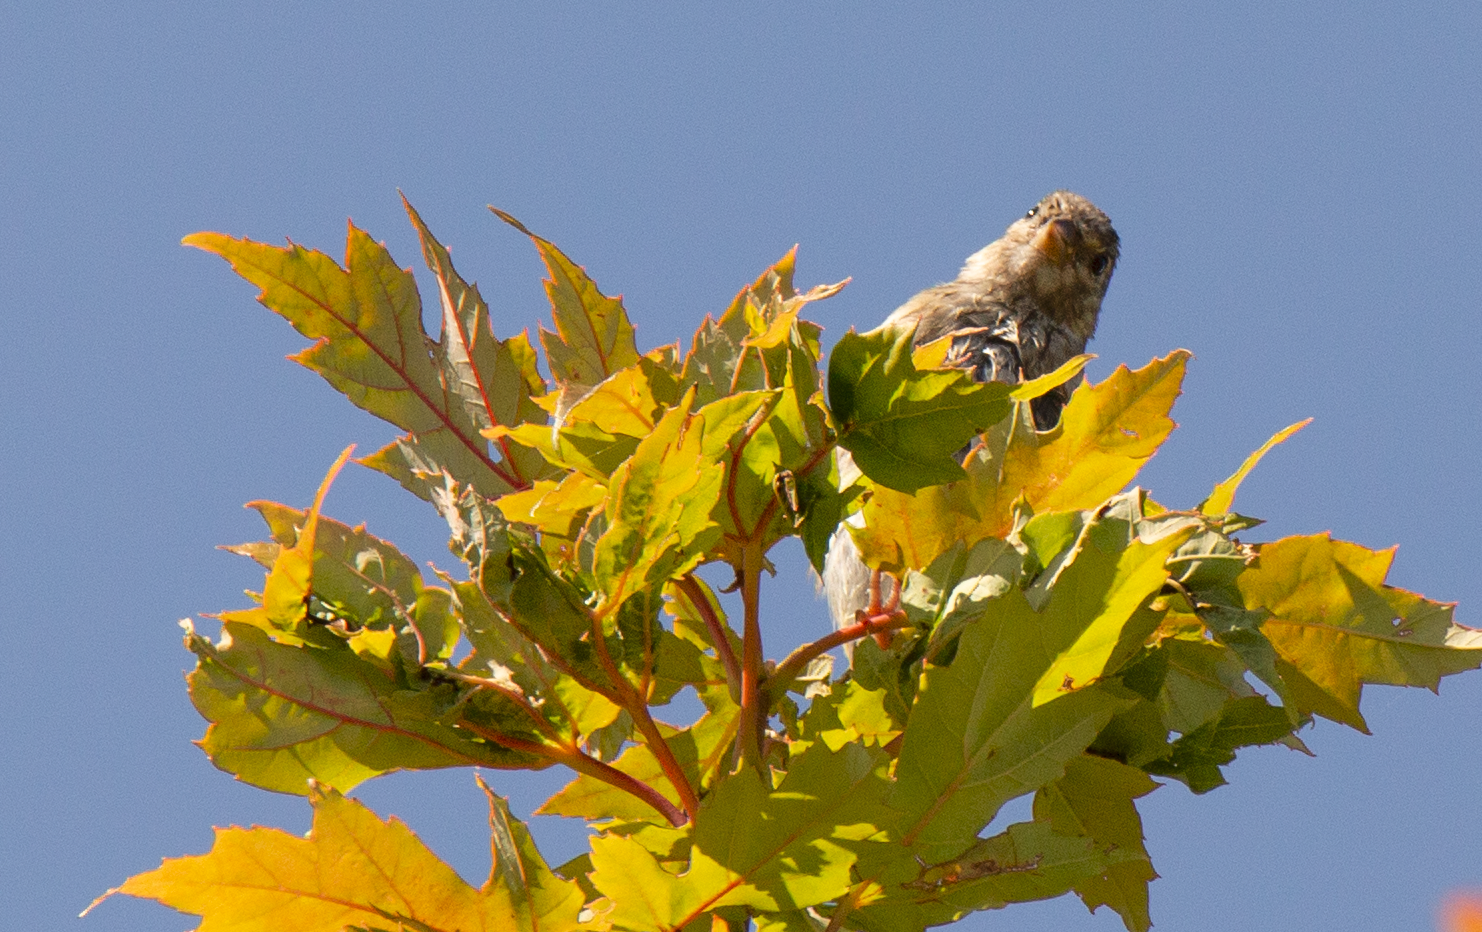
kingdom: Animalia
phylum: Chordata
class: Aves
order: Passeriformes
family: Passeridae
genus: Passer
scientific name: Passer
